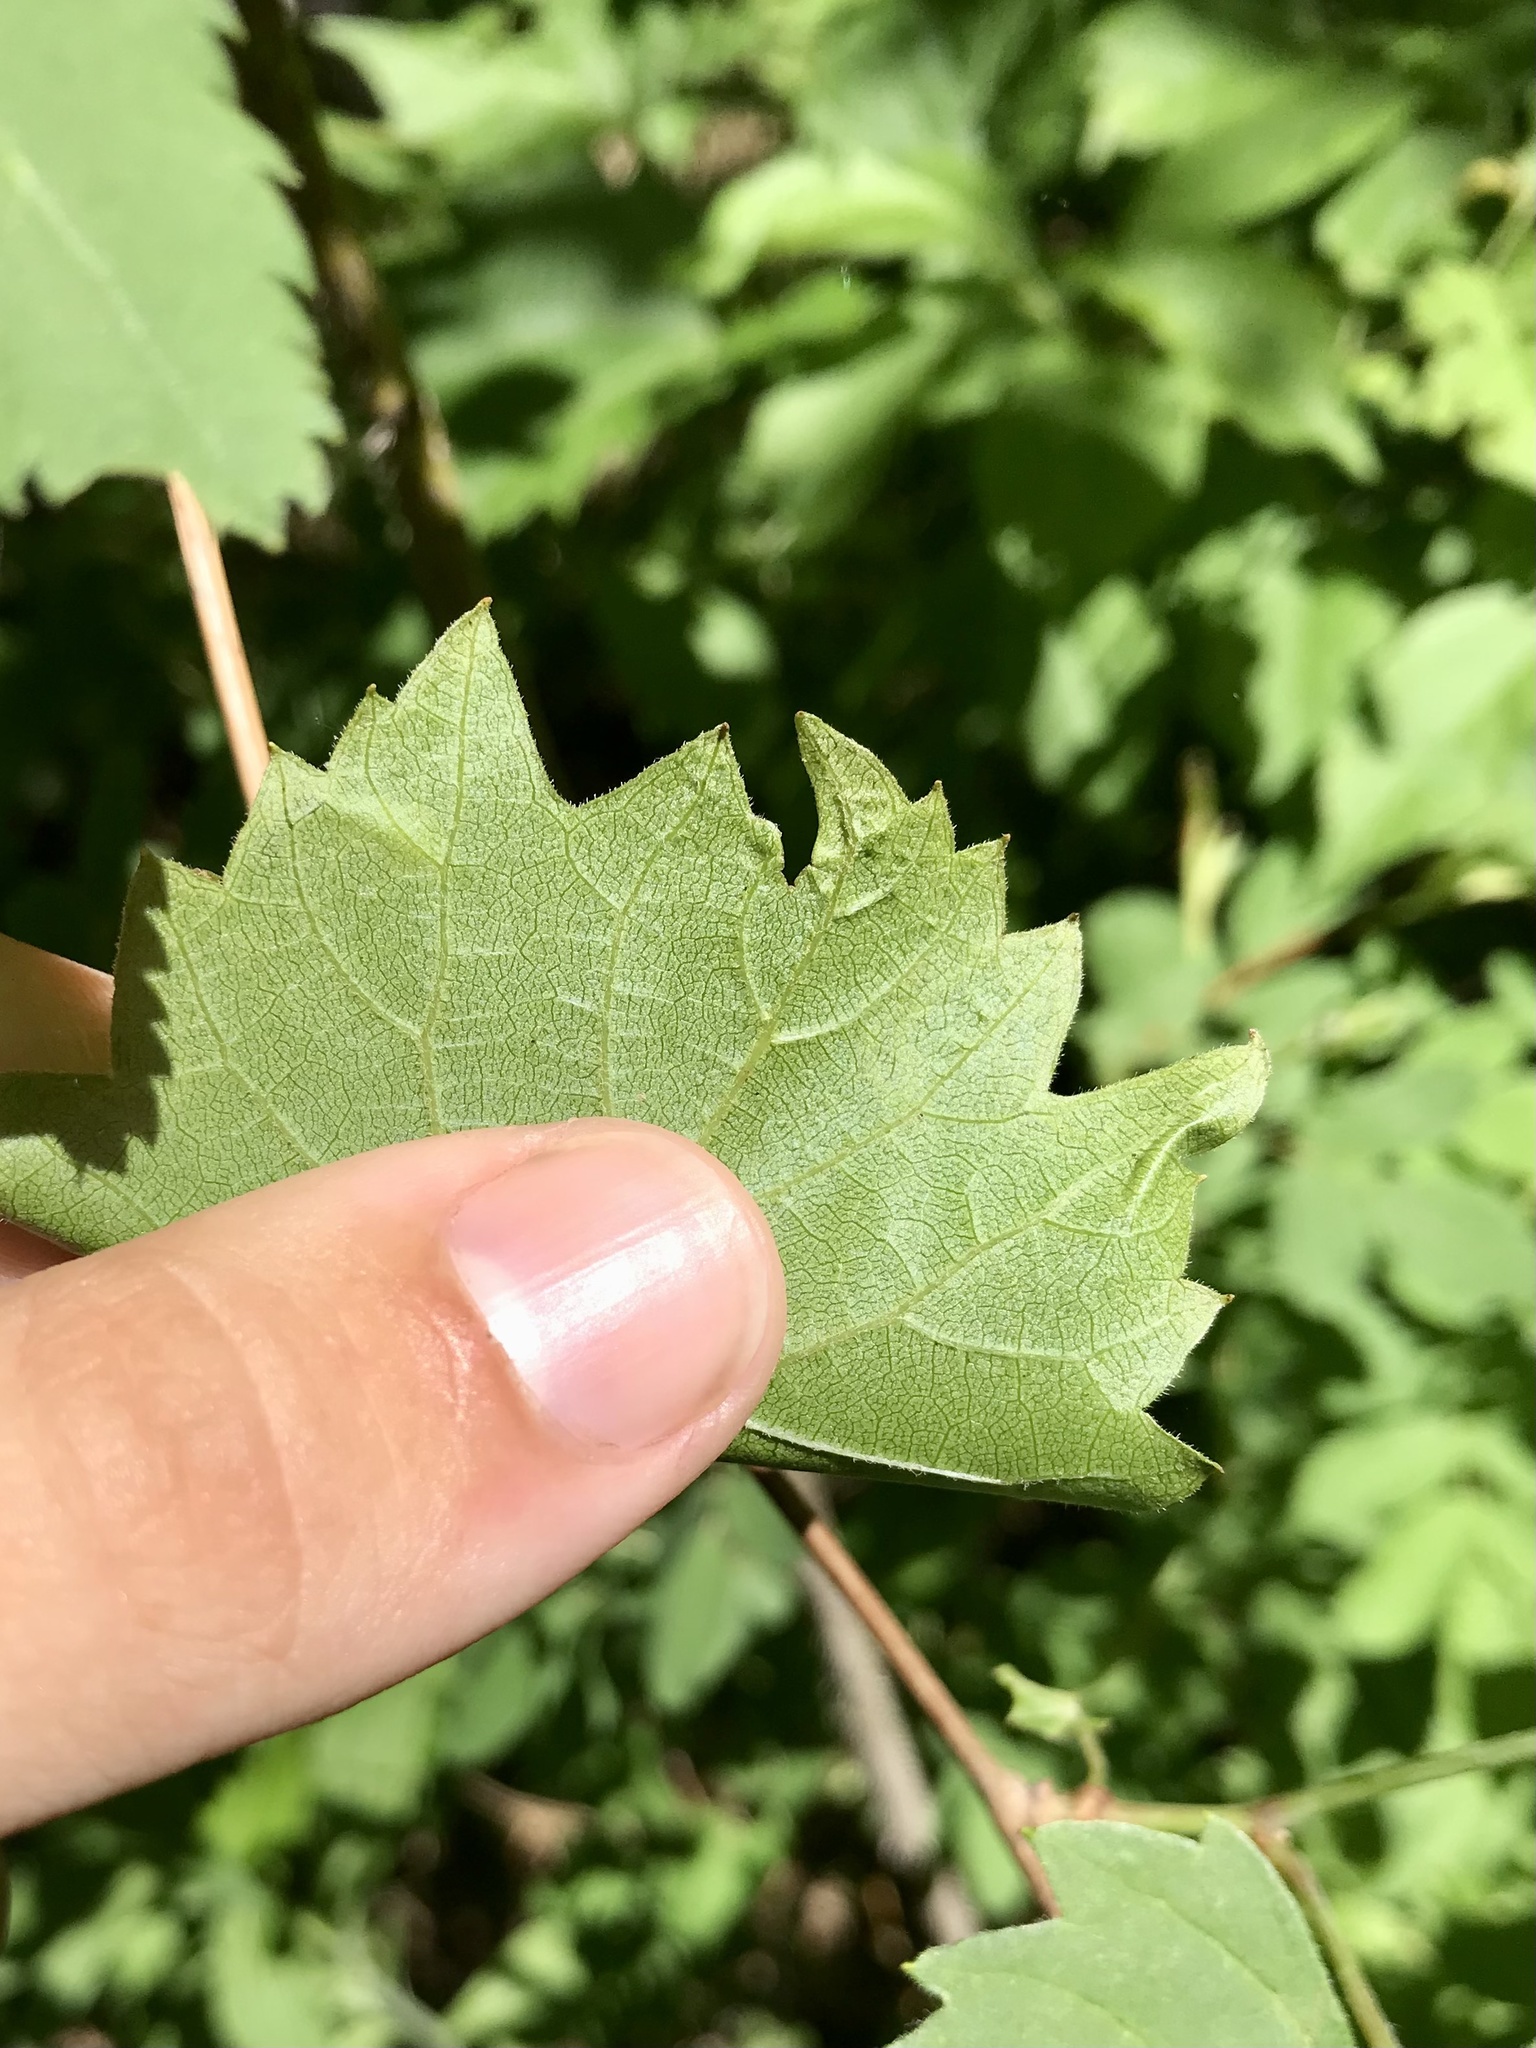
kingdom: Animalia
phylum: Arthropoda
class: Insecta
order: Lepidoptera
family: Gracillariidae
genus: Phyllocnistis
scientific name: Phyllocnistis vitifoliella
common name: Grape leaf-miner moth
